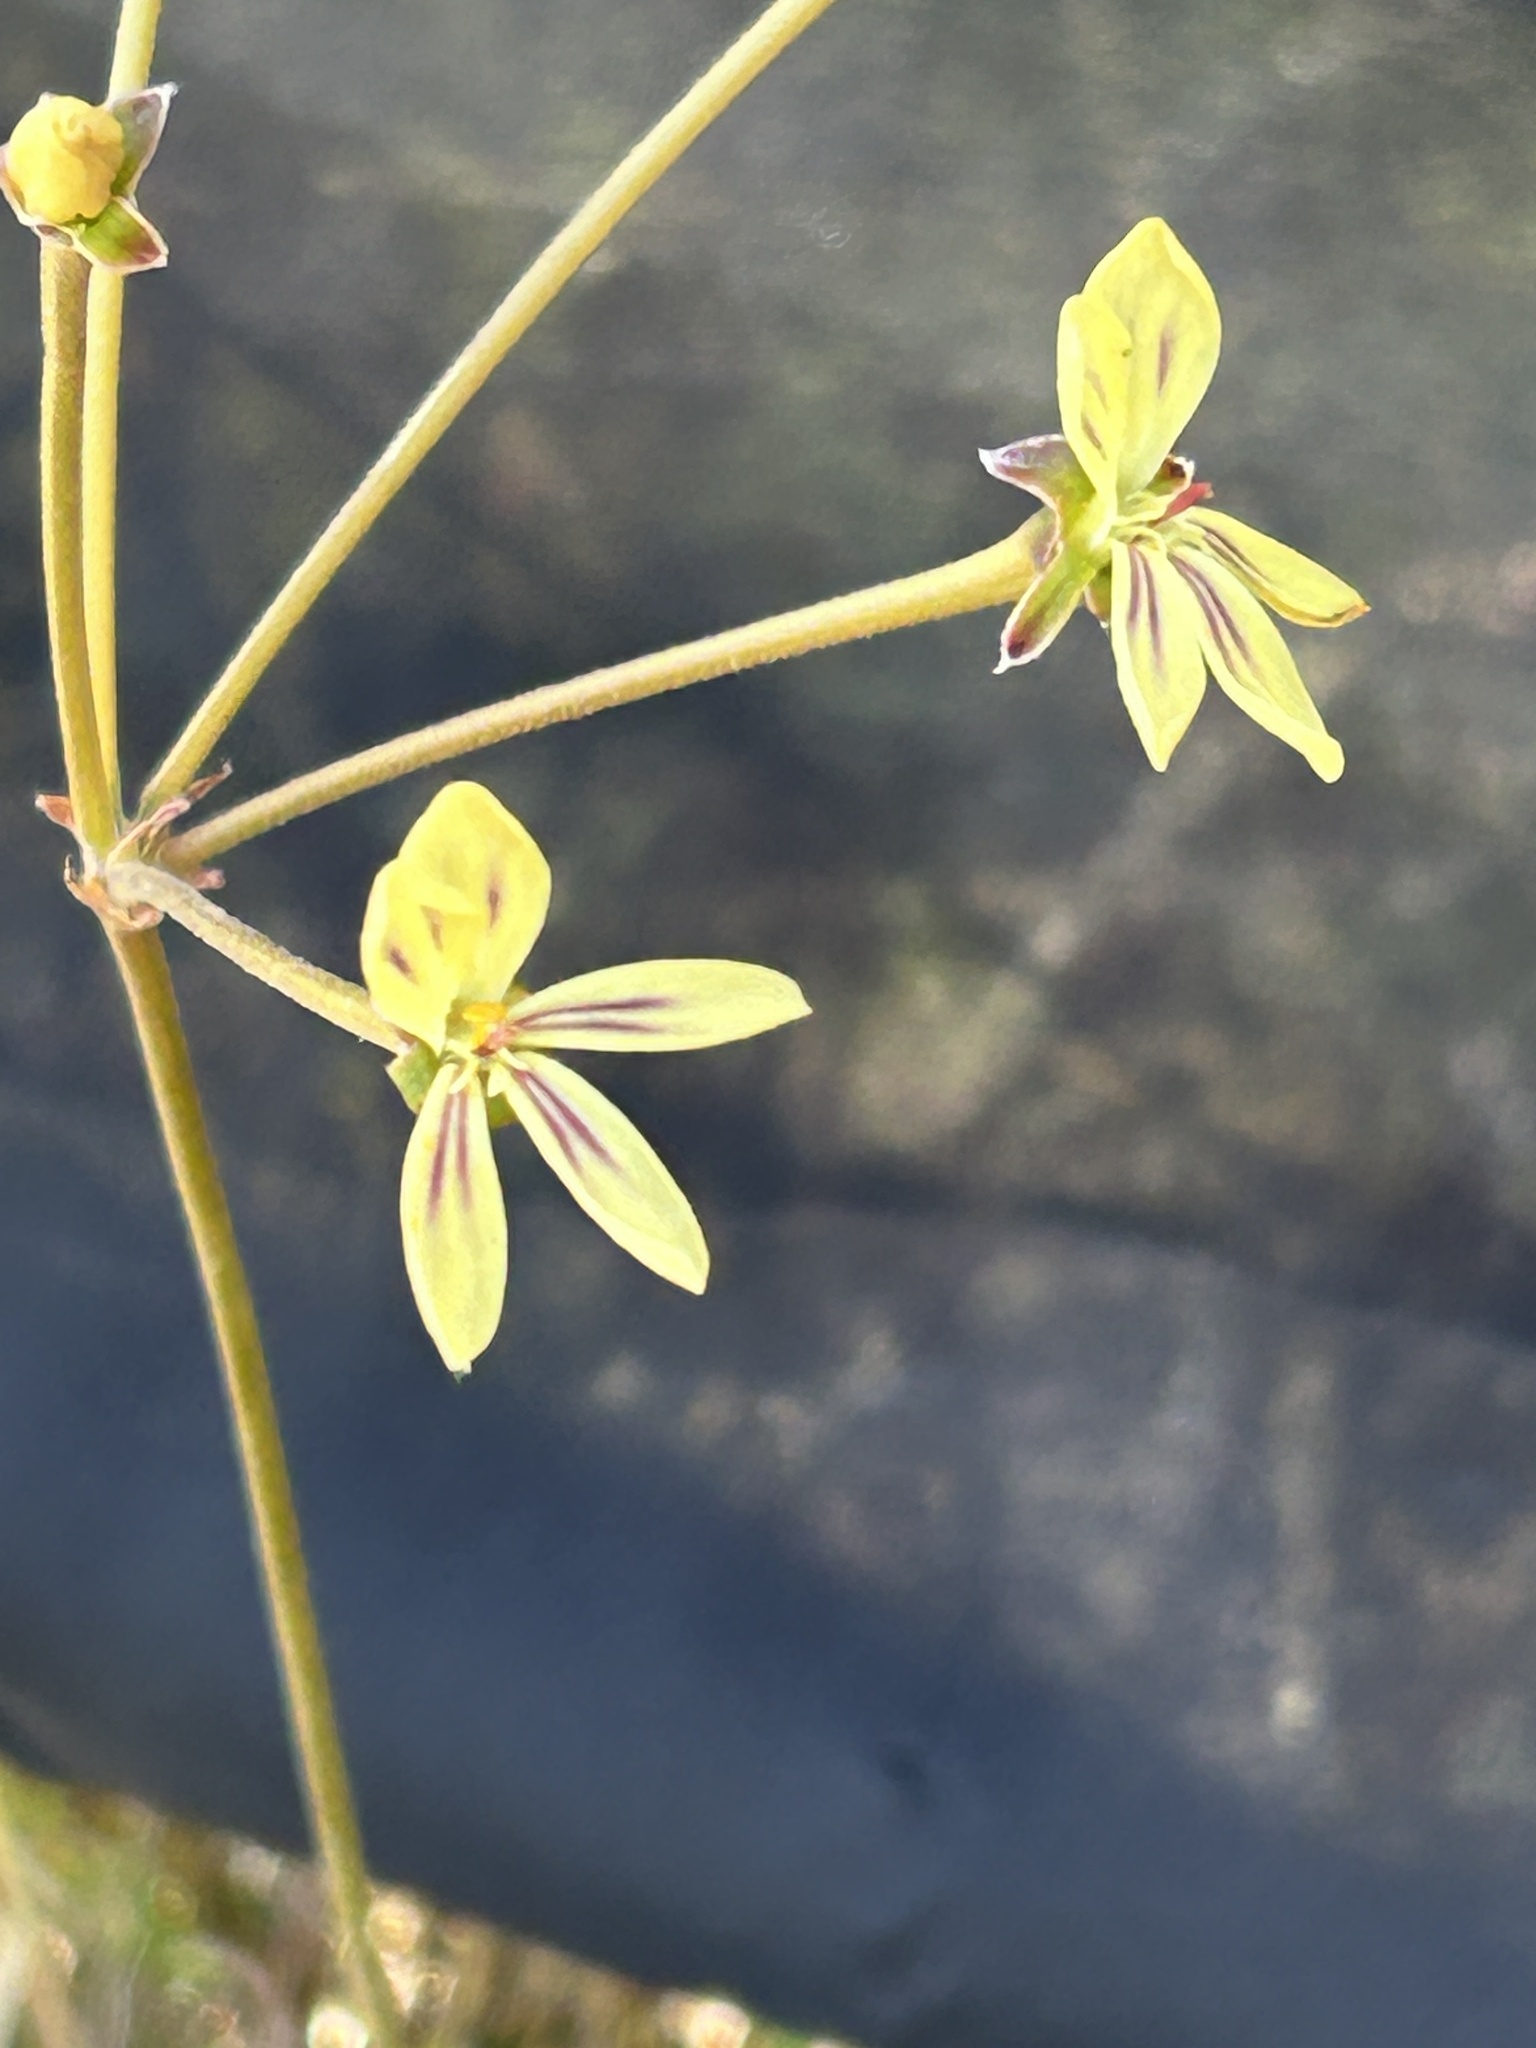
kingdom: Plantae
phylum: Tracheophyta
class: Magnoliopsida
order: Geraniales
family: Geraniaceae
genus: Pelargonium
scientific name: Pelargonium pillansii
